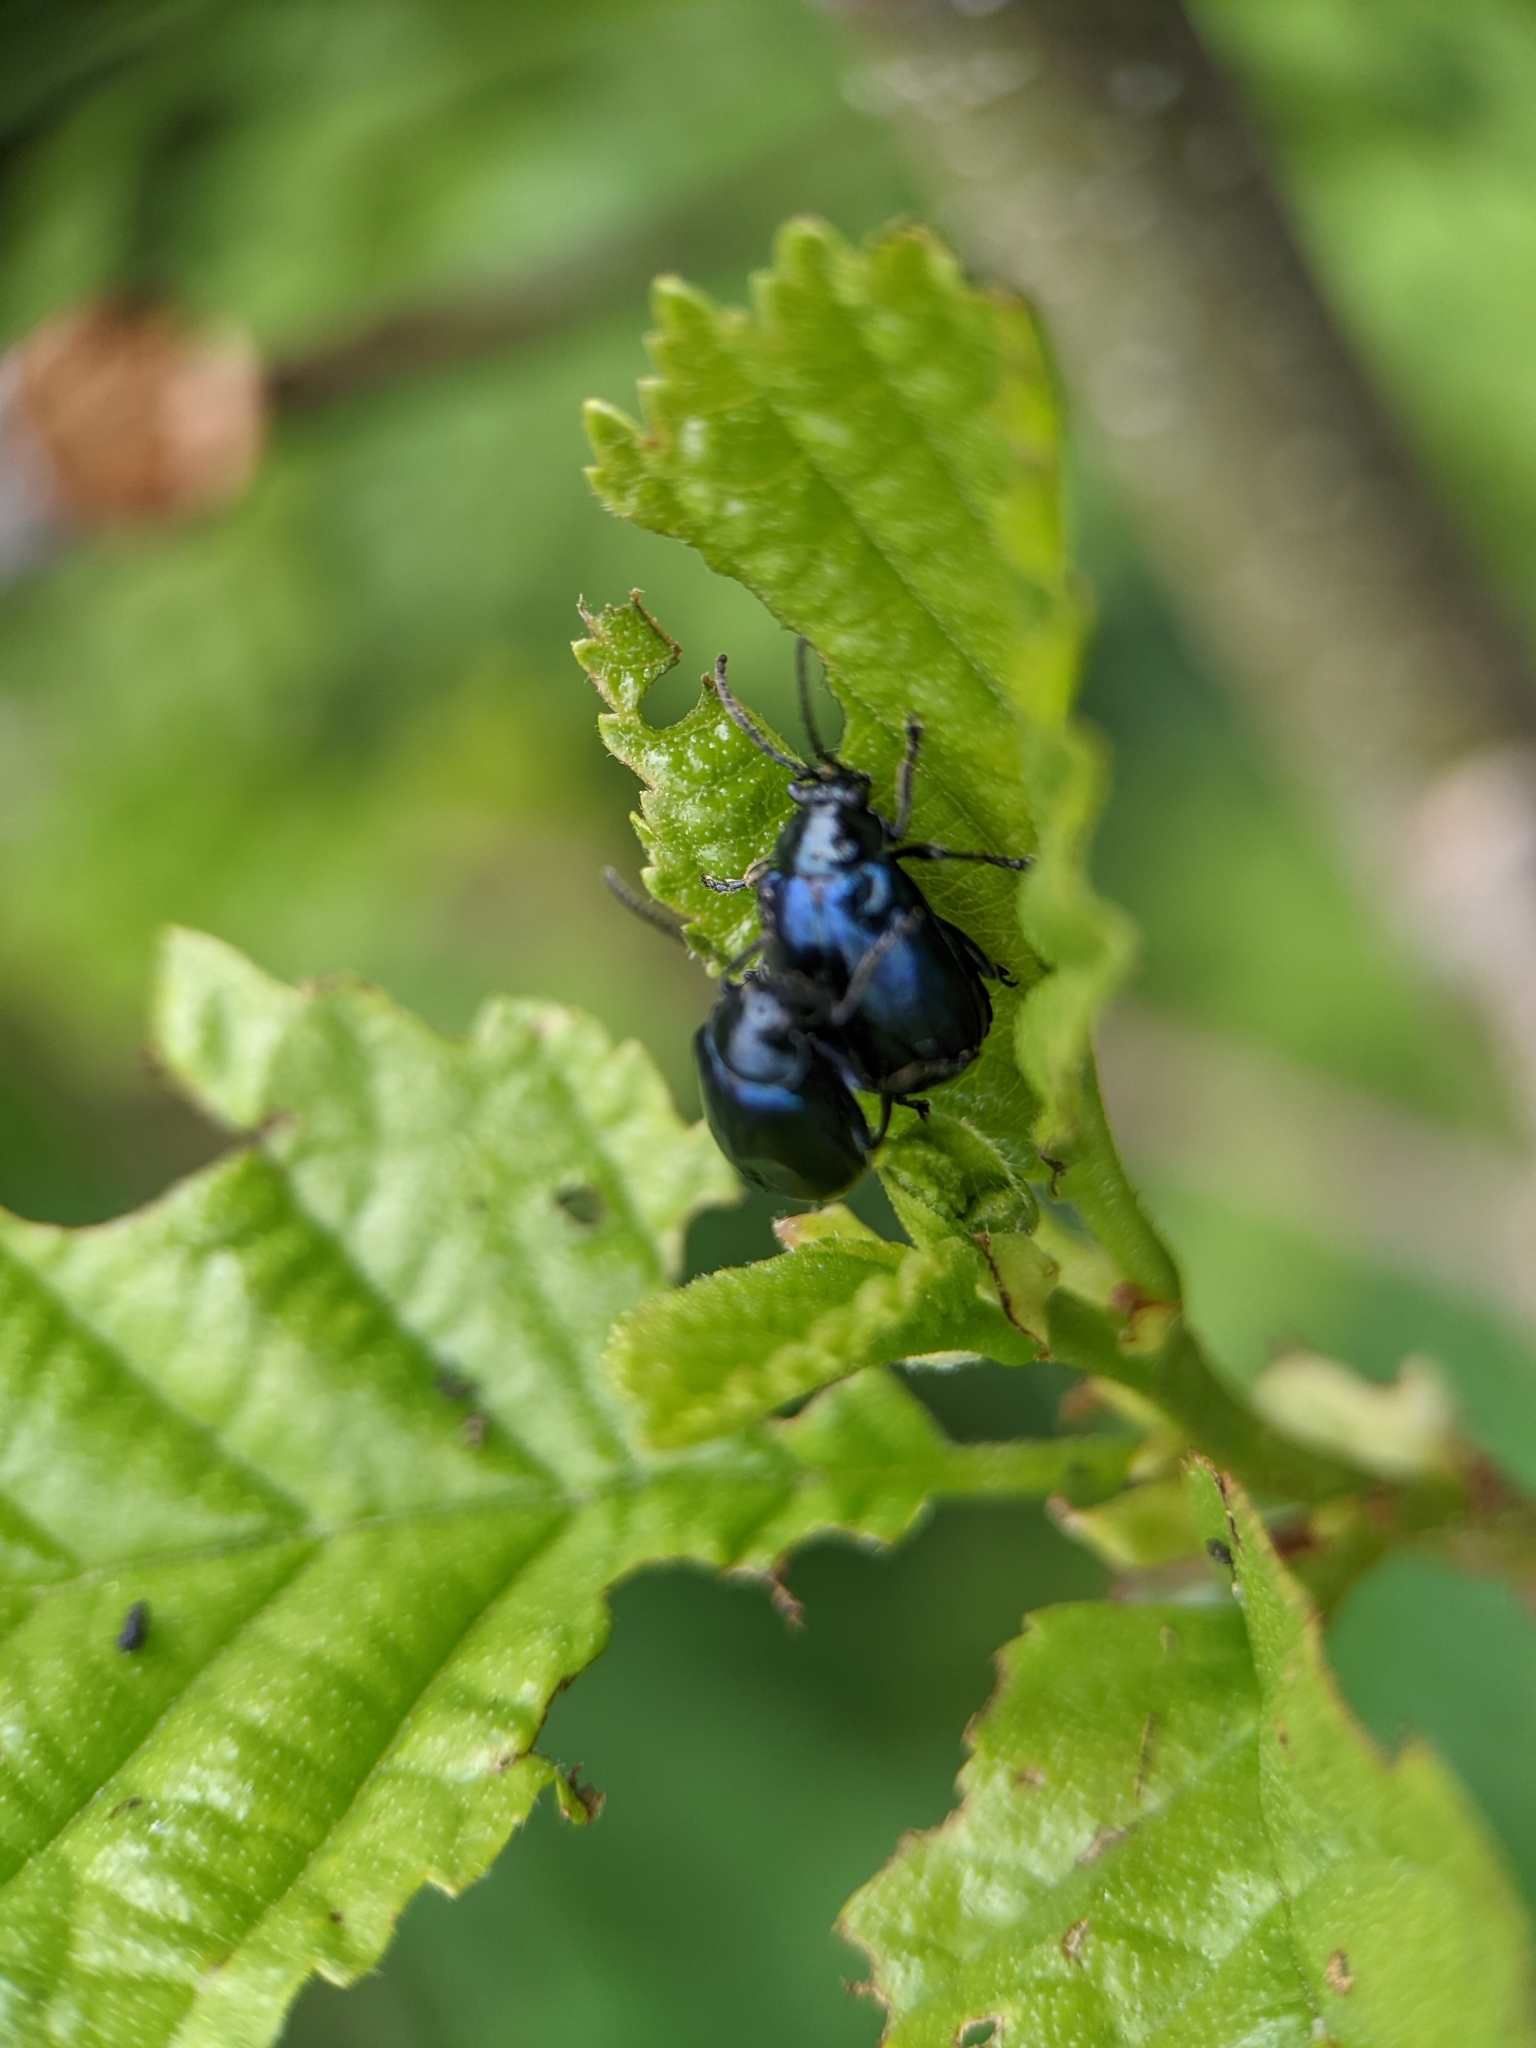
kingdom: Animalia
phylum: Arthropoda
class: Insecta
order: Coleoptera
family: Chrysomelidae
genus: Agelastica
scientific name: Agelastica alni
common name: Alder leaf beetle
